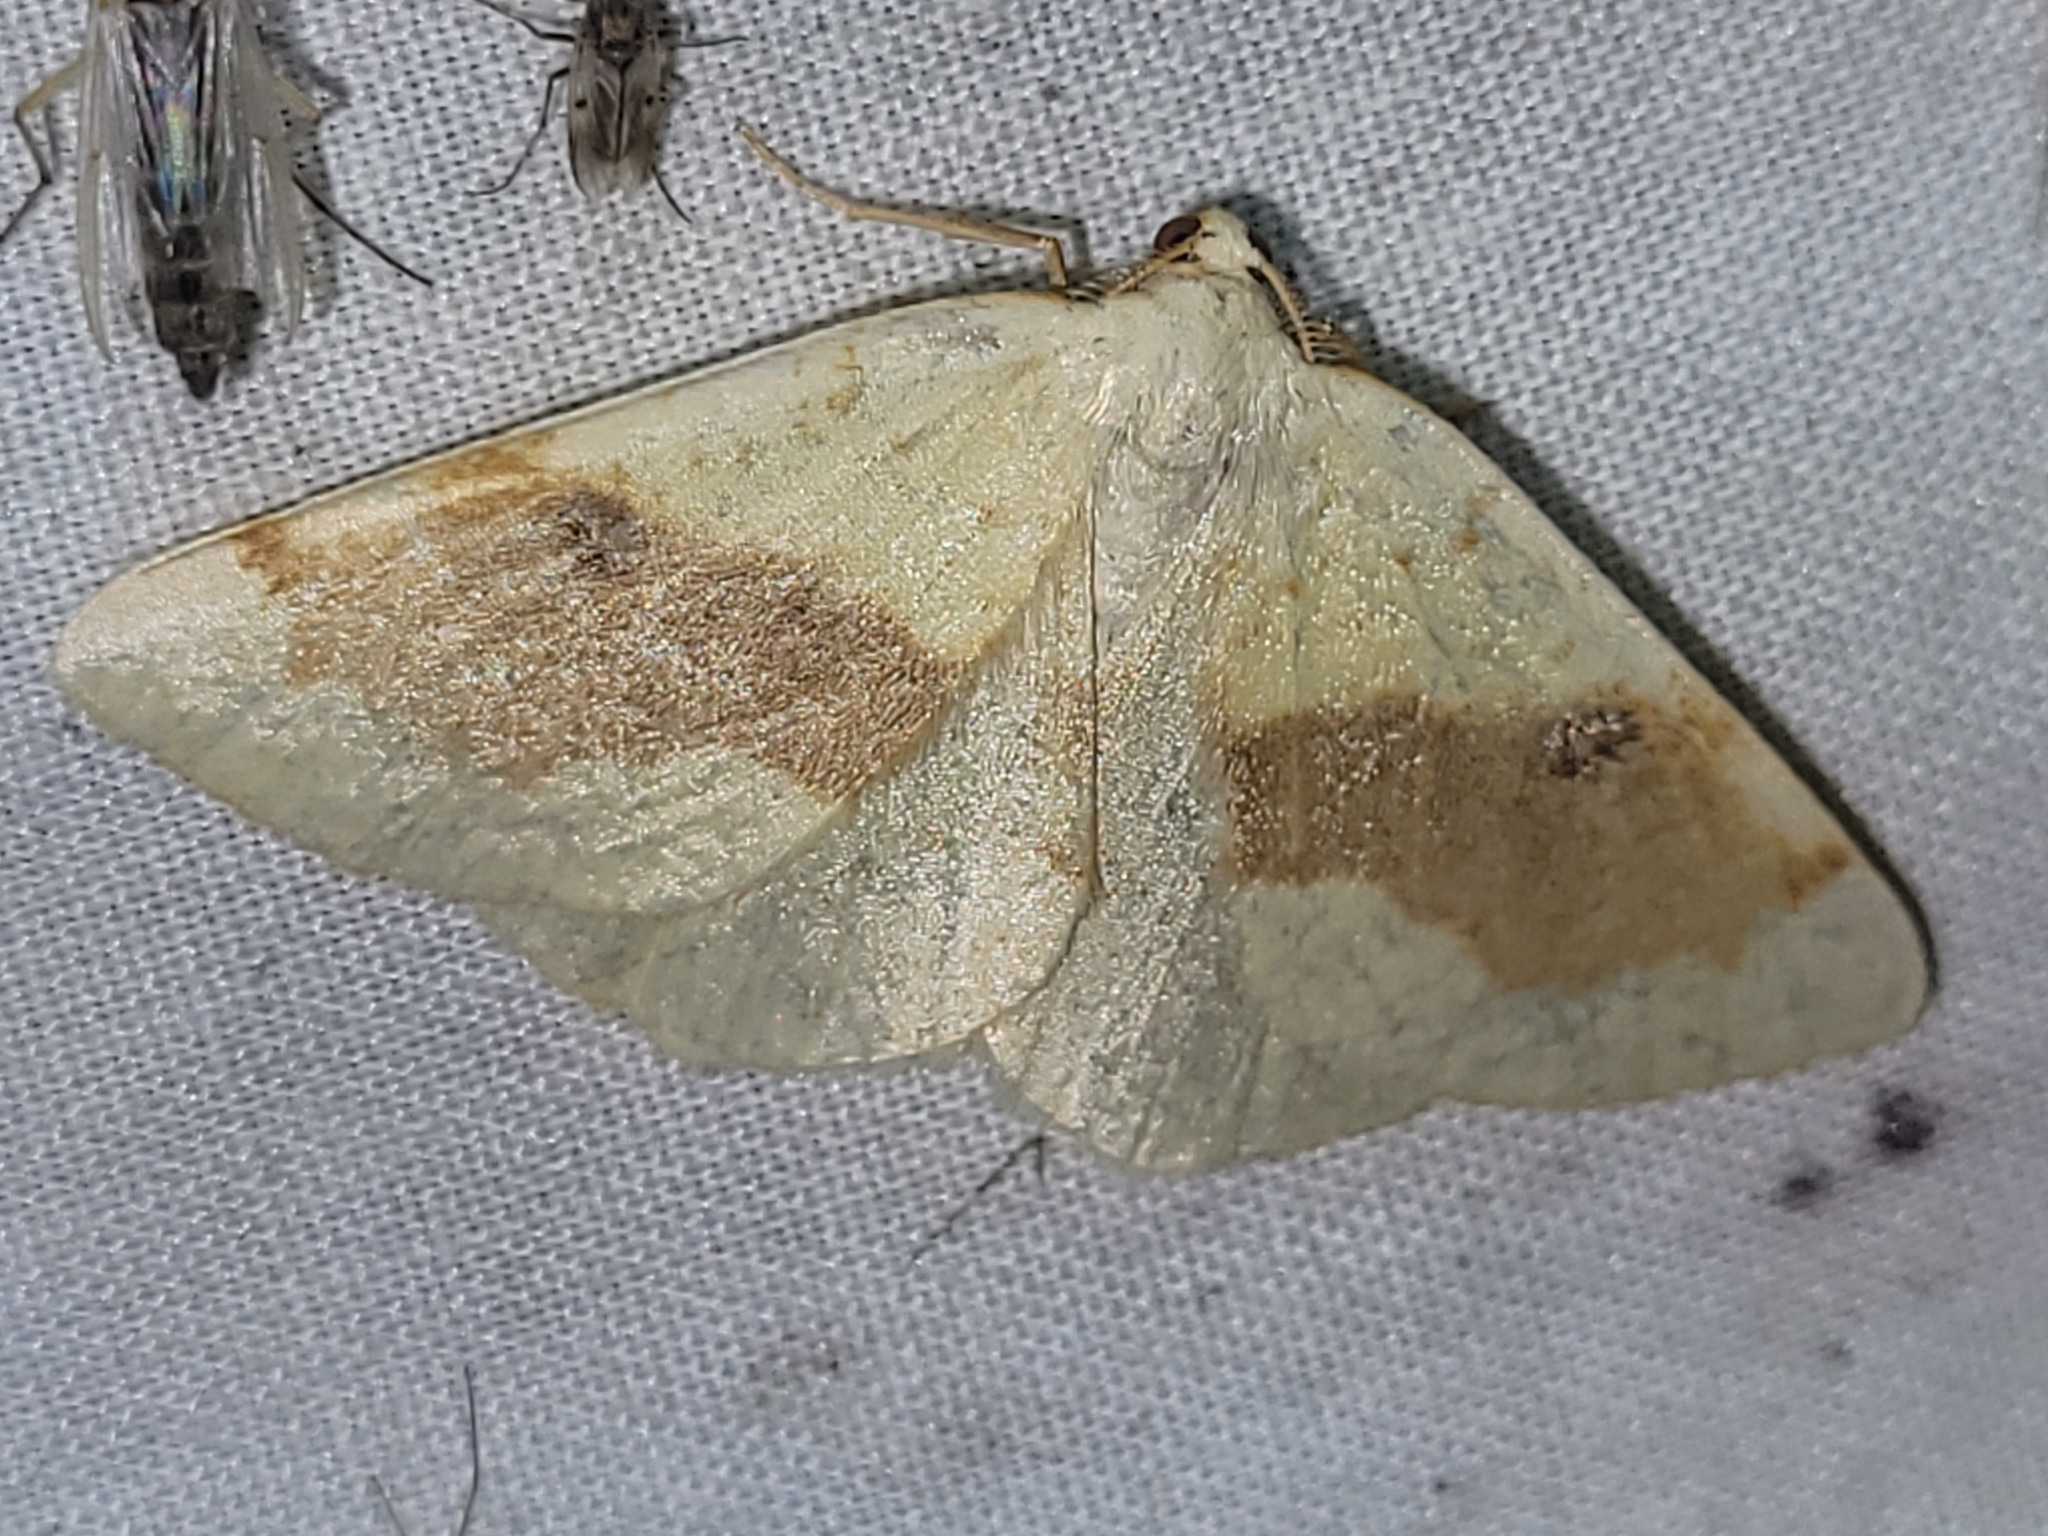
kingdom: Animalia
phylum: Arthropoda
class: Insecta
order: Lepidoptera
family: Geometridae
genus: Hesperumia
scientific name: Hesperumia sulphuraria
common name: Sulphur moth
